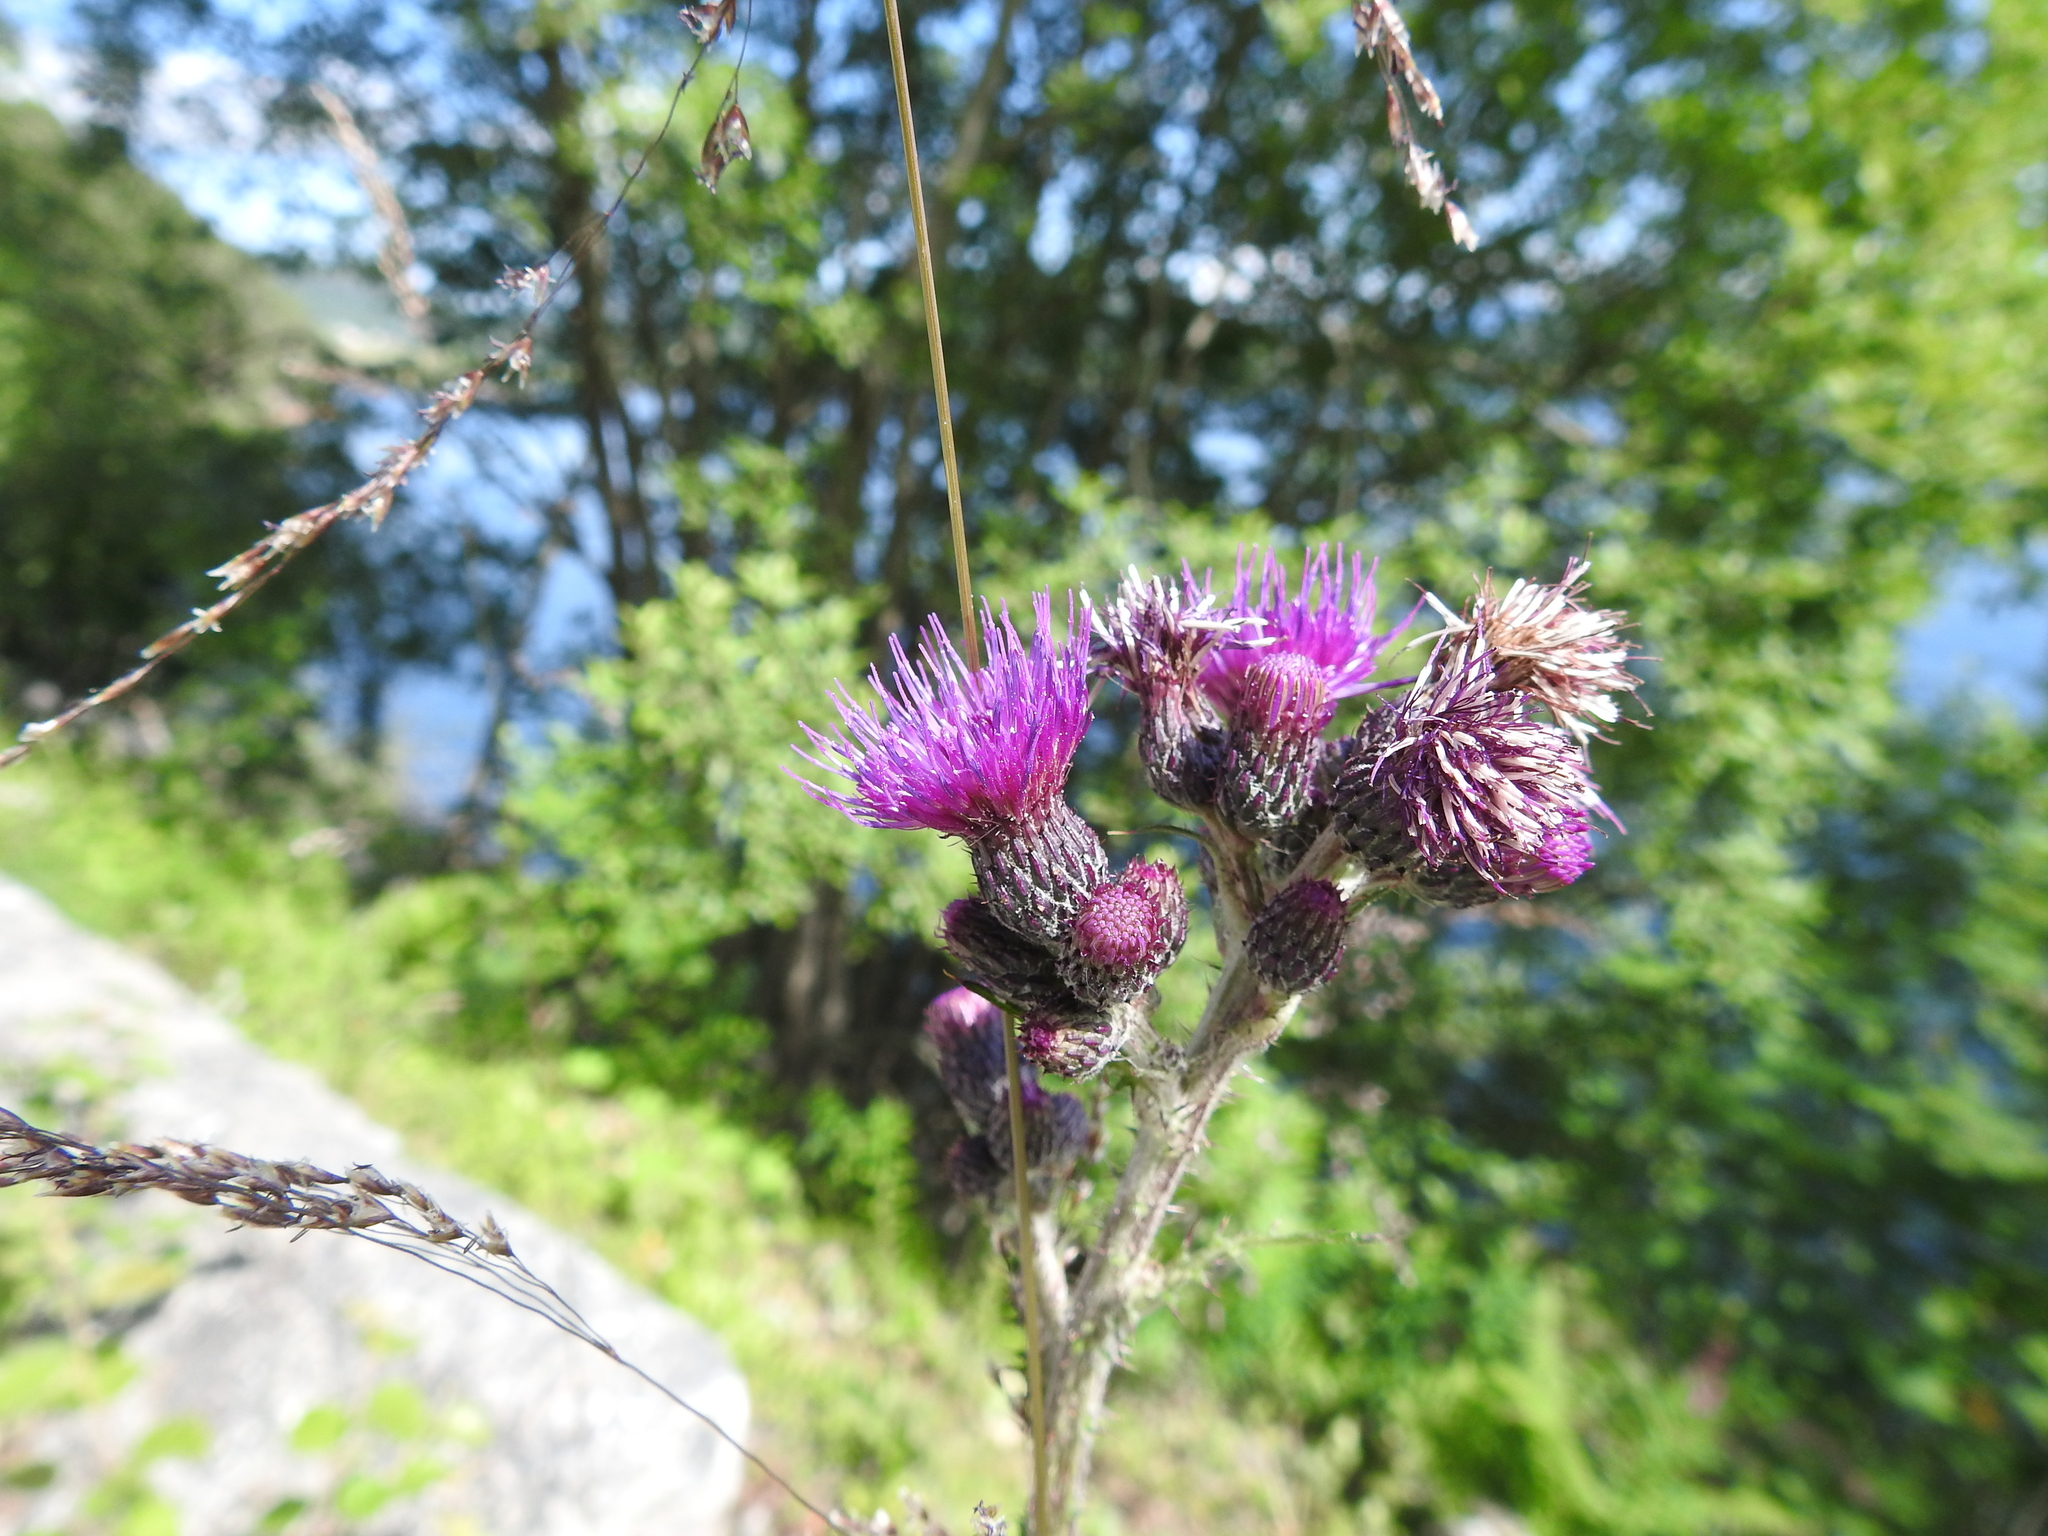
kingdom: Plantae
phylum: Tracheophyta
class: Magnoliopsida
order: Asterales
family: Asteraceae
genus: Cirsium
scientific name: Cirsium palustre
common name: Marsh thistle
